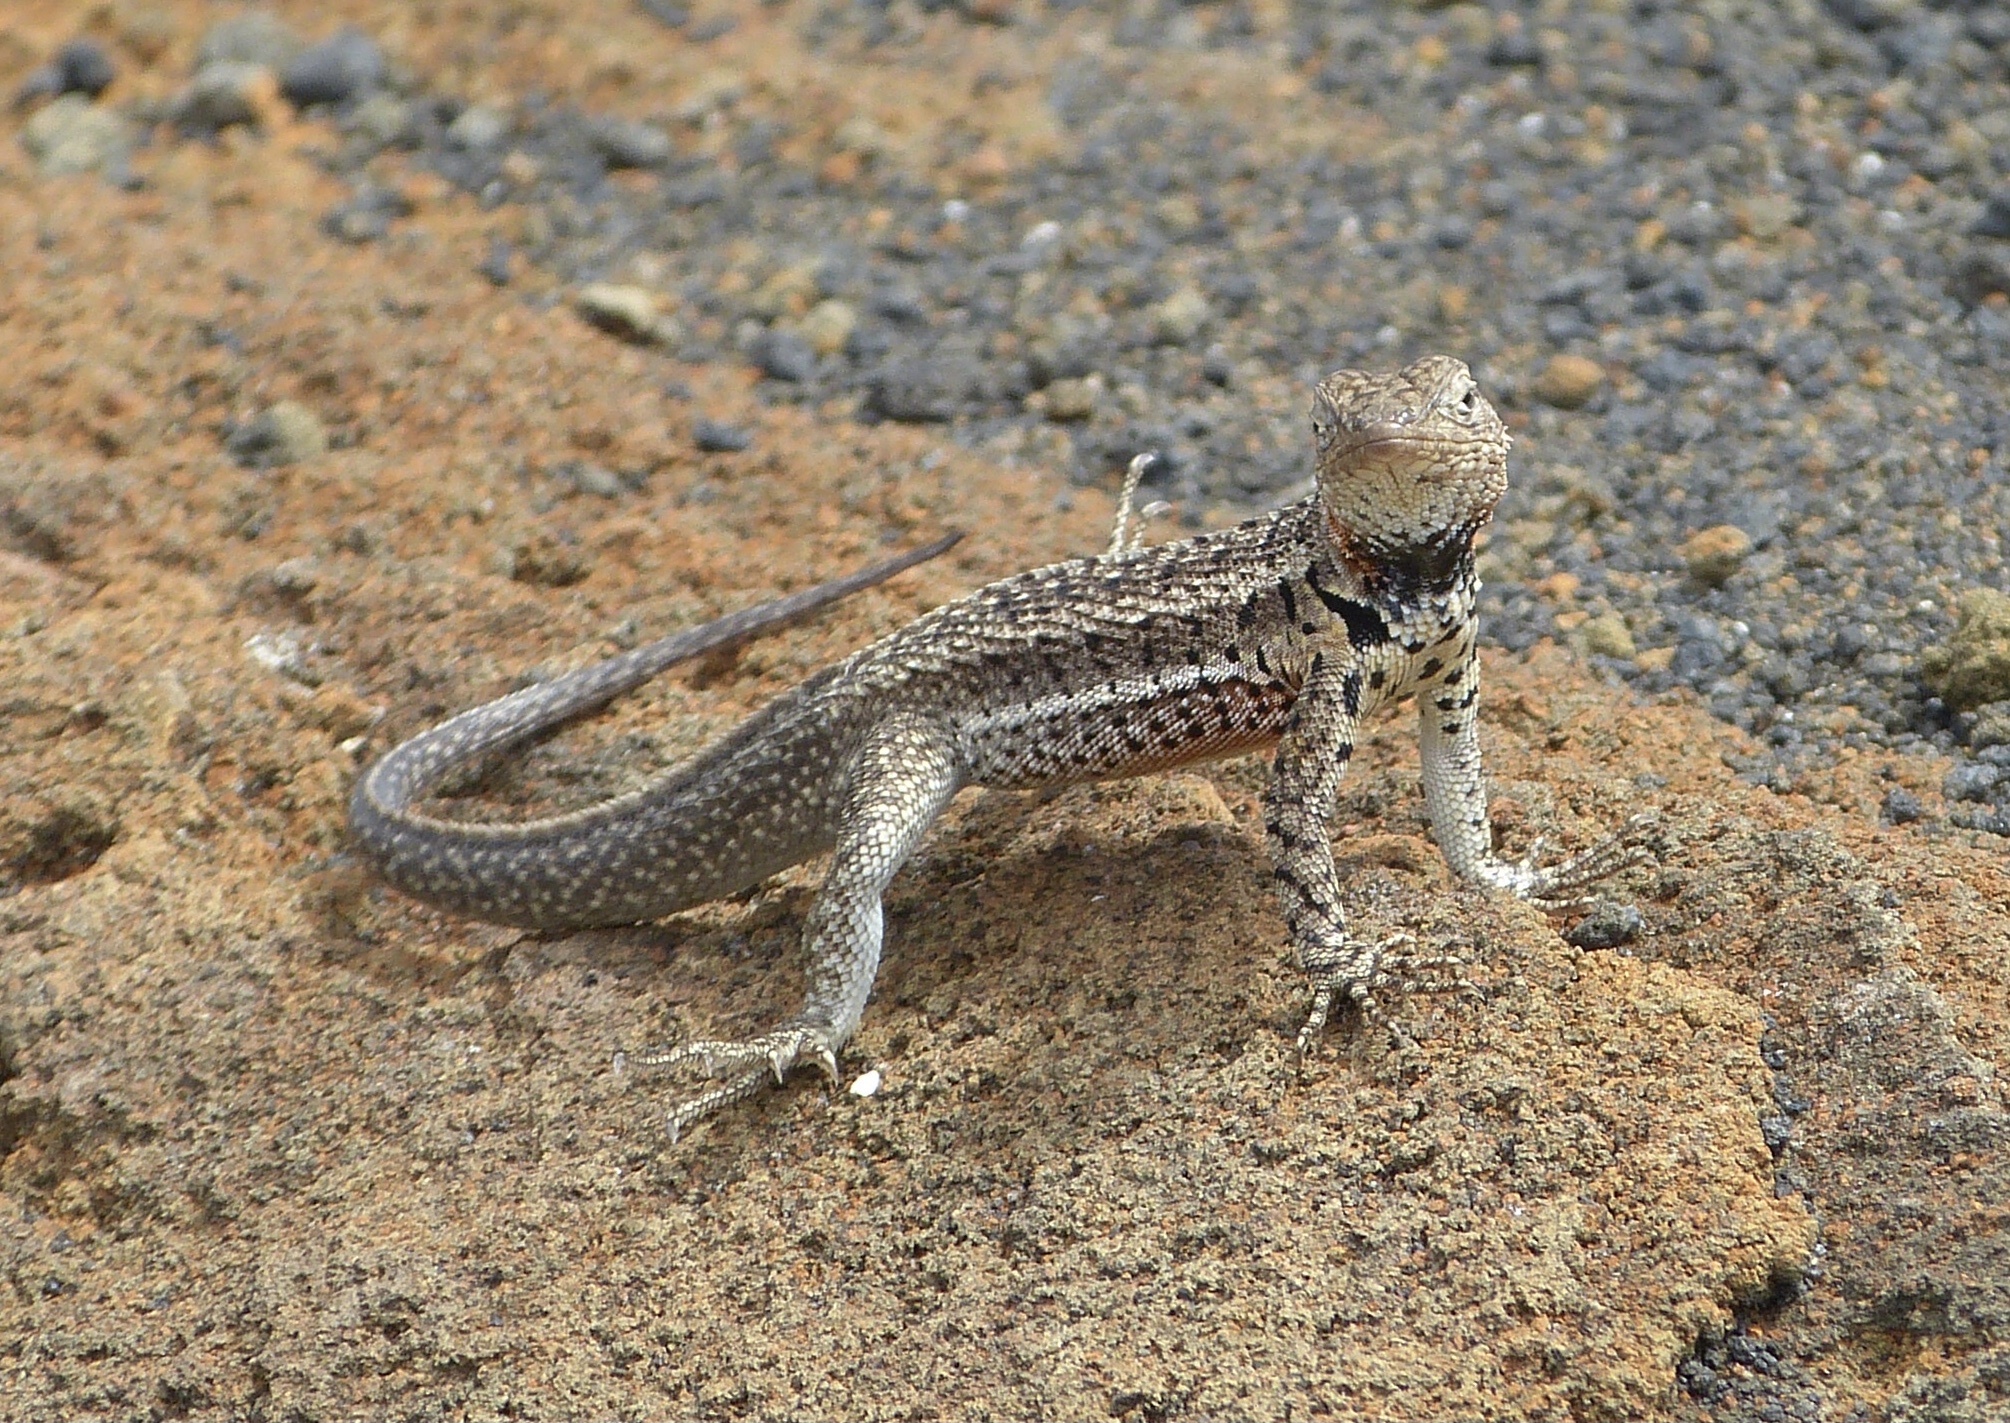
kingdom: Animalia
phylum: Chordata
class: Squamata
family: Tropiduridae
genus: Microlophus
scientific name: Microlophus jacobii
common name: Santiago lava lizard
